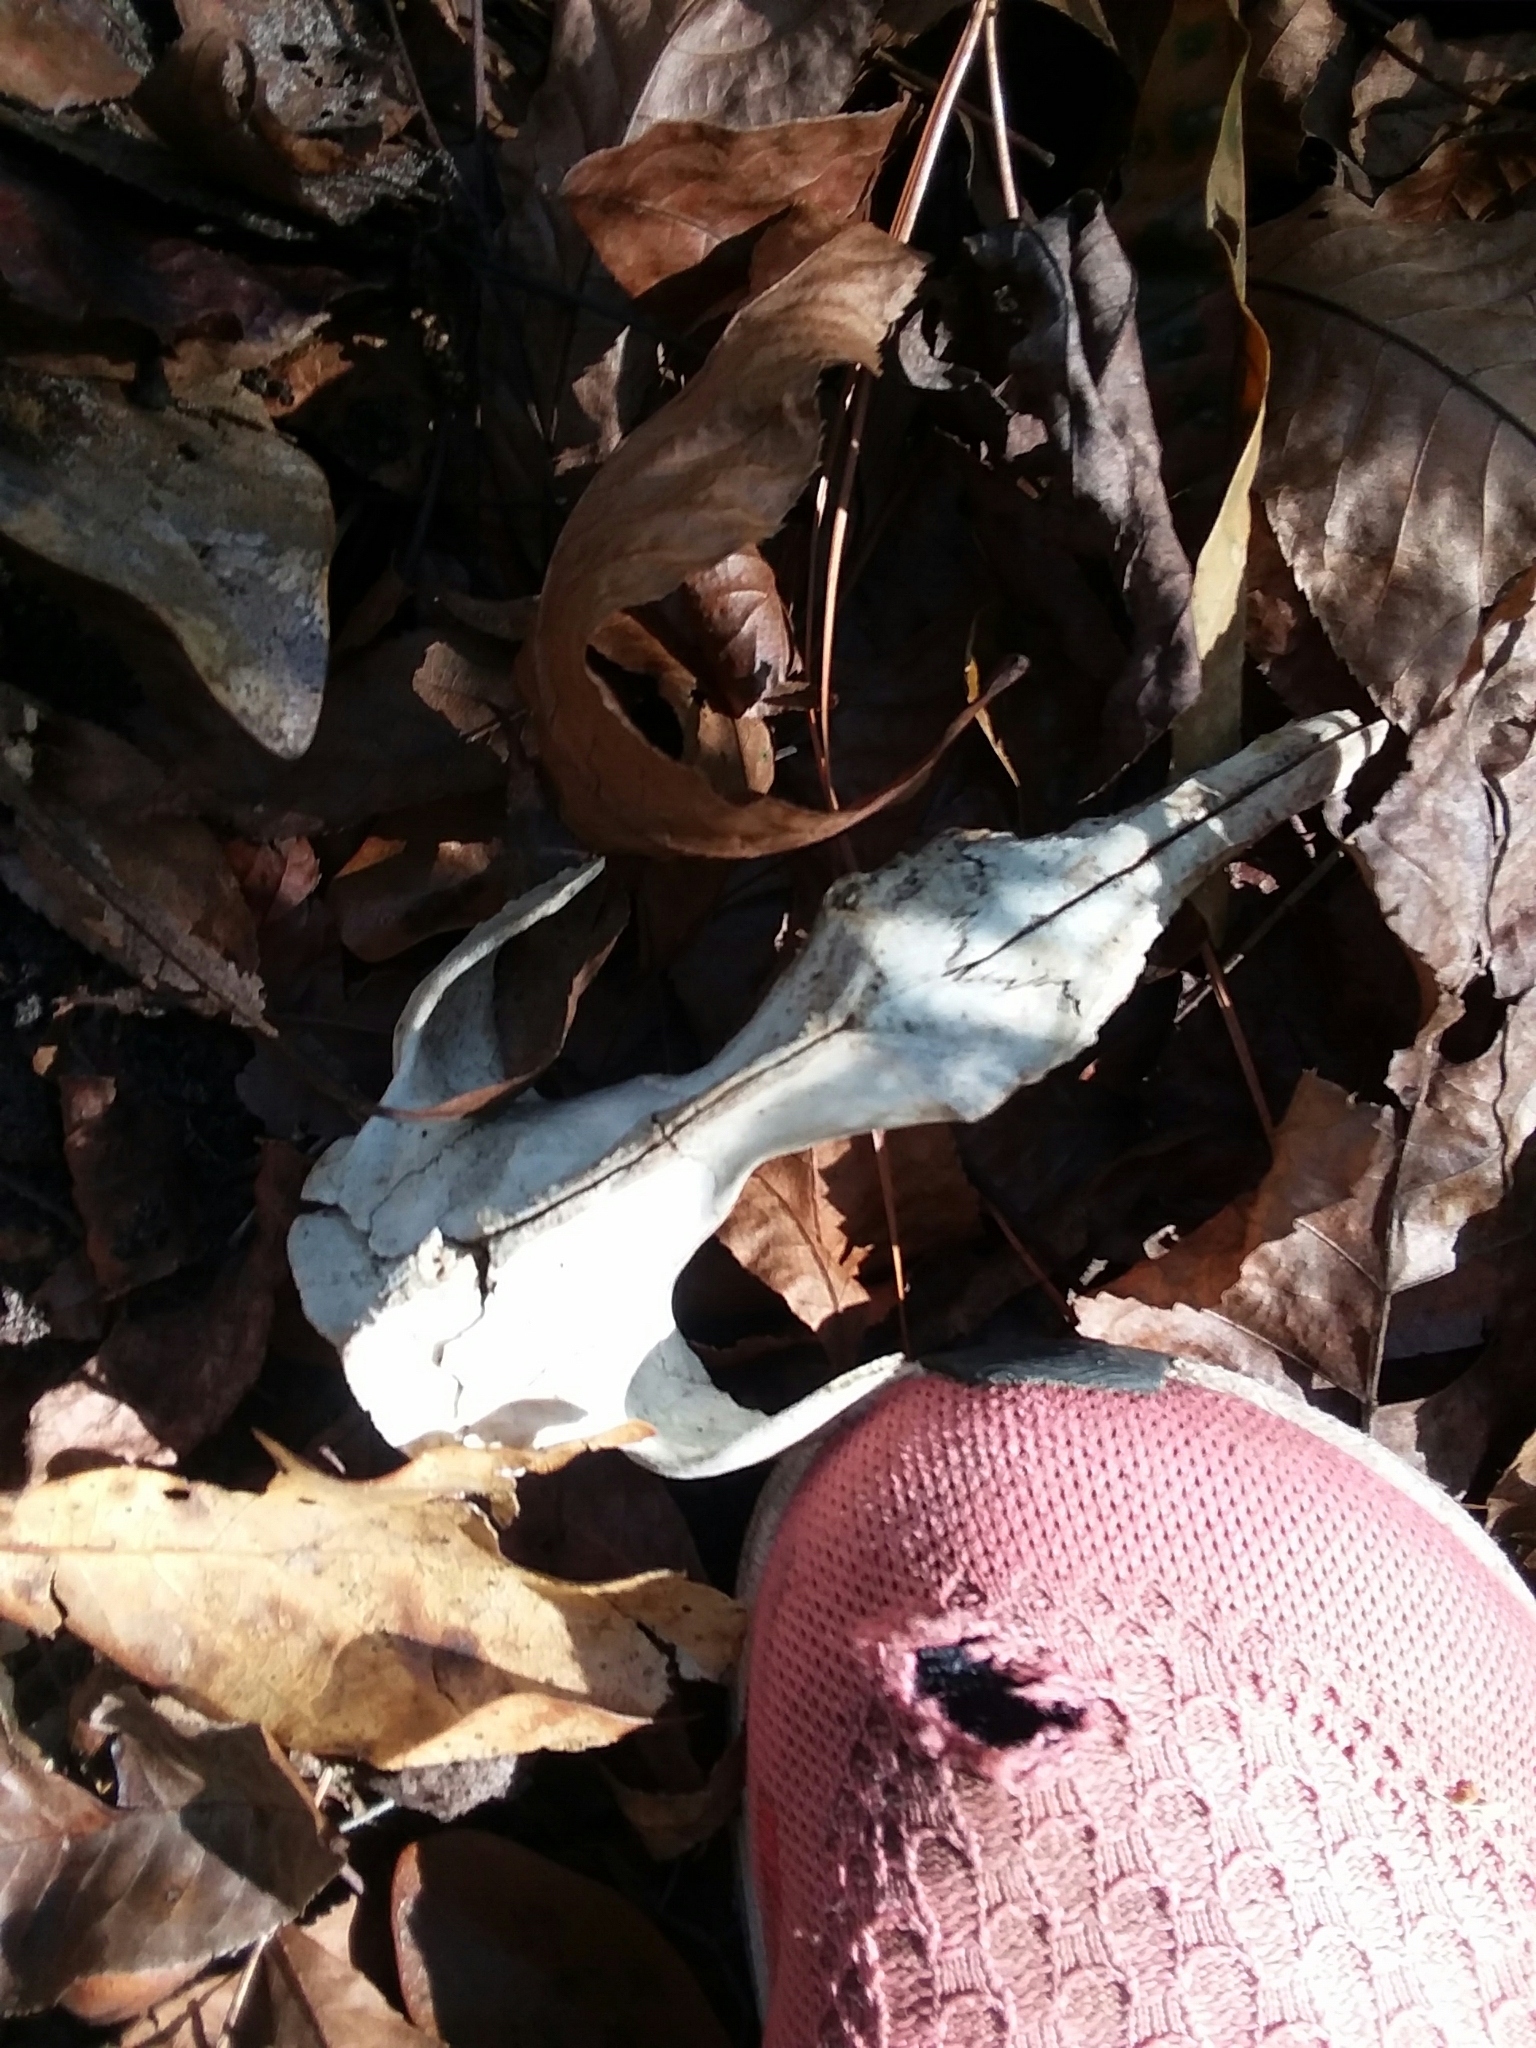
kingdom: Animalia
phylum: Chordata
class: Mammalia
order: Didelphimorphia
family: Didelphidae
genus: Didelphis
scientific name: Didelphis virginiana
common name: Virginia opossum
